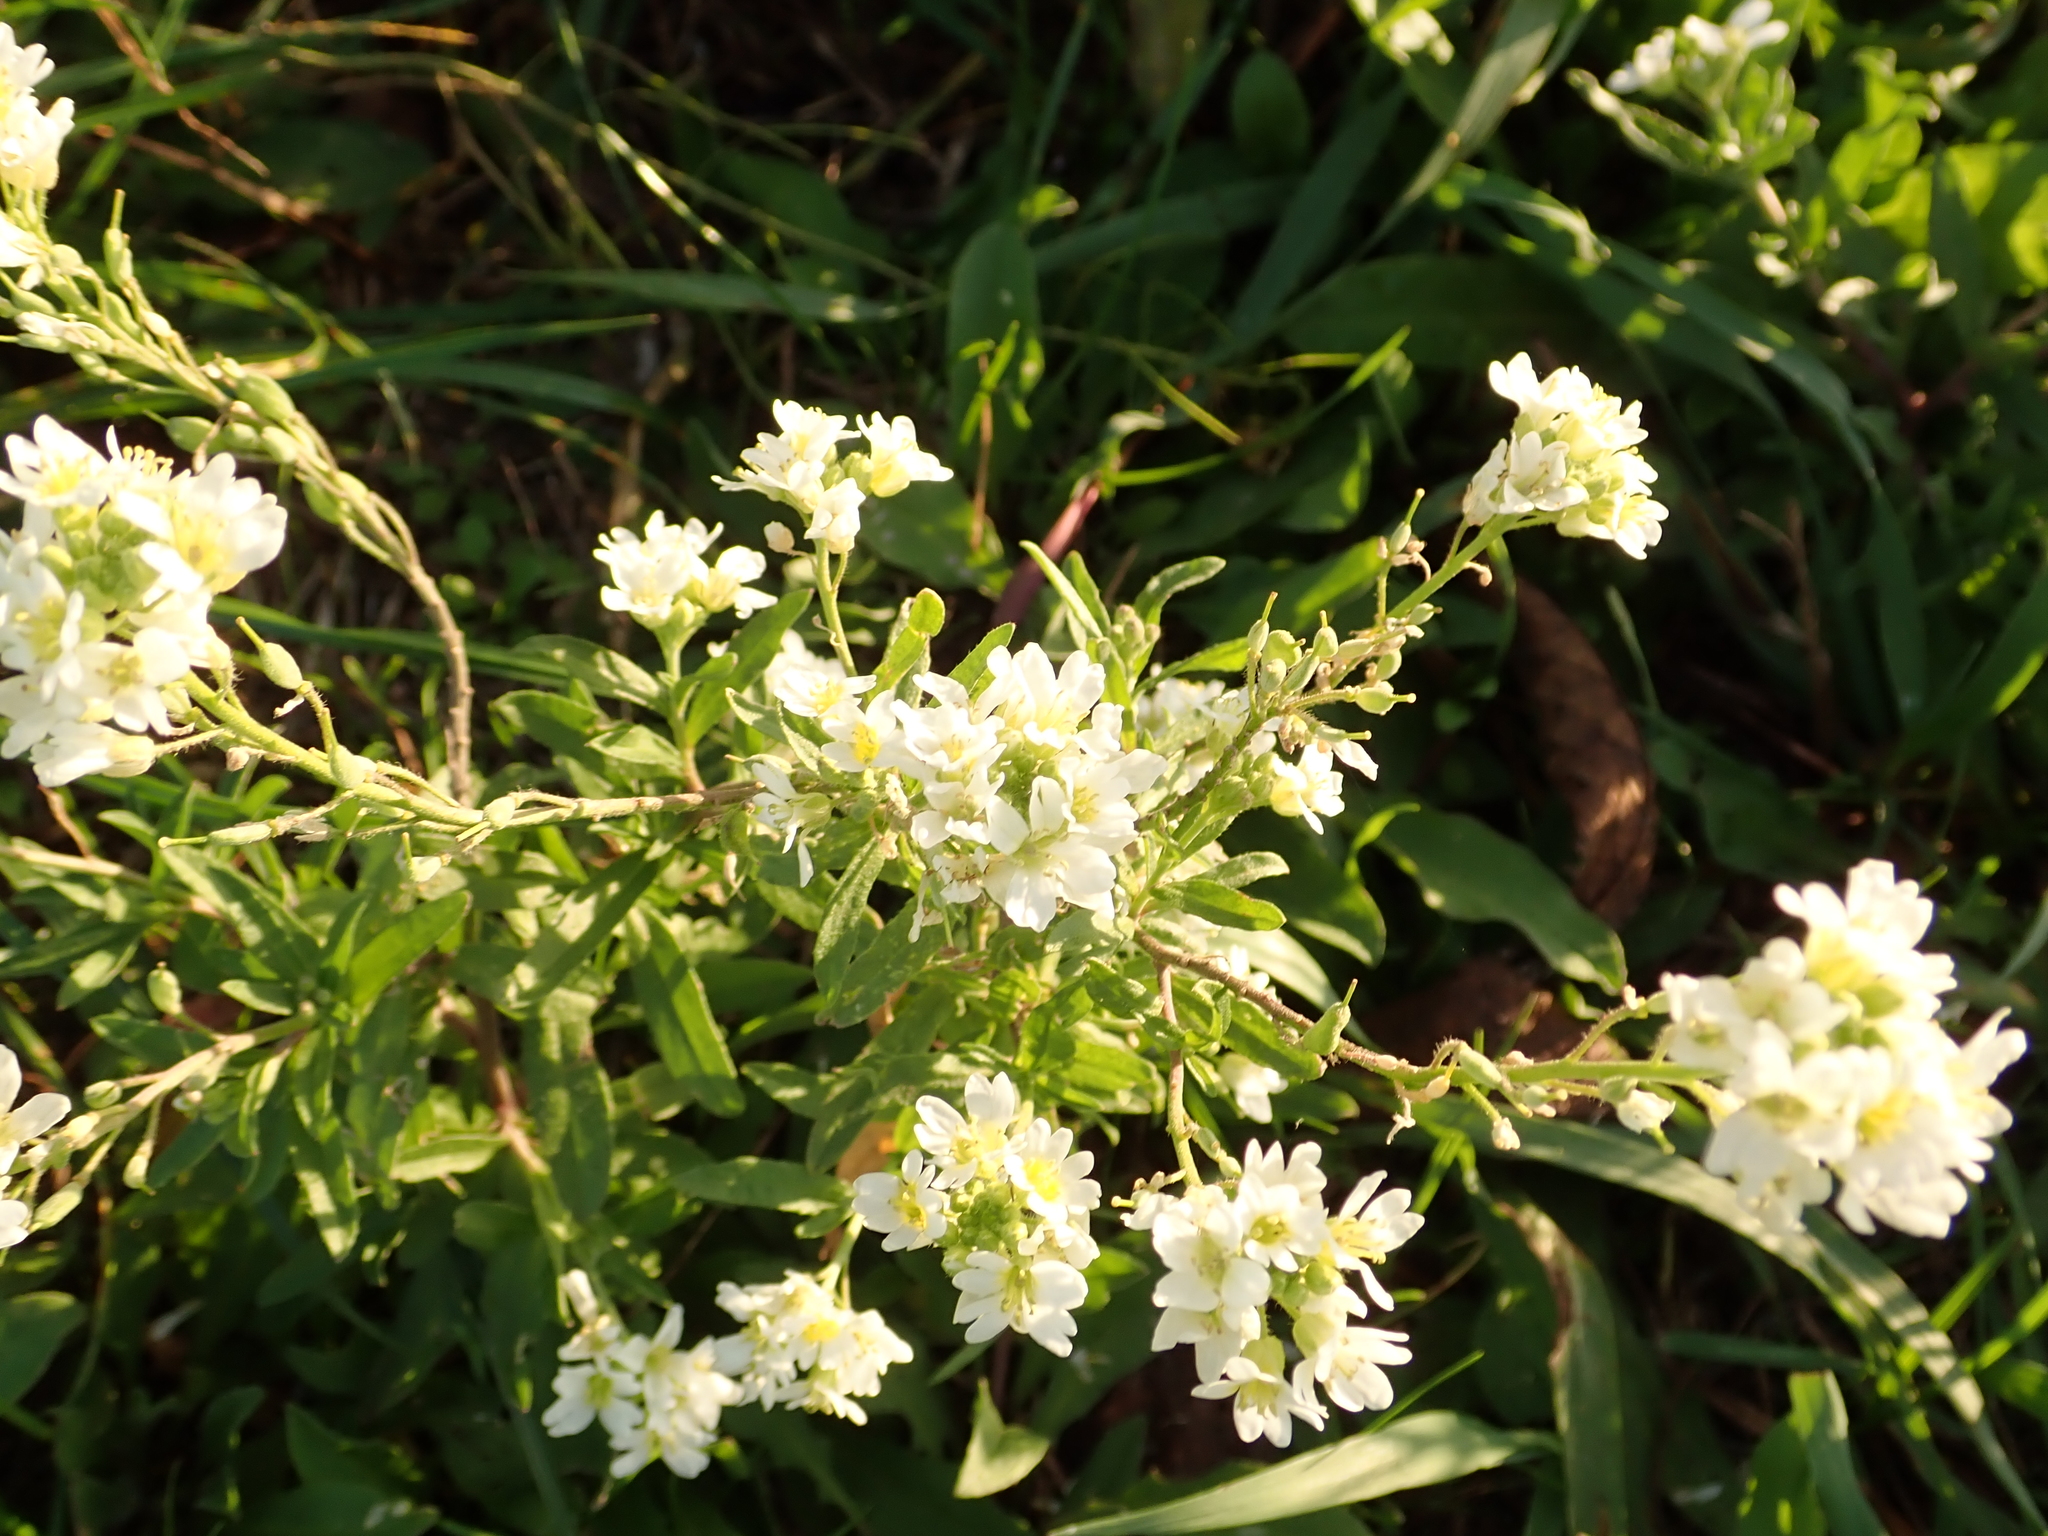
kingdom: Plantae
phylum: Tracheophyta
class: Magnoliopsida
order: Brassicales
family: Brassicaceae
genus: Berteroa
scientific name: Berteroa incana
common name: Hoary alison
